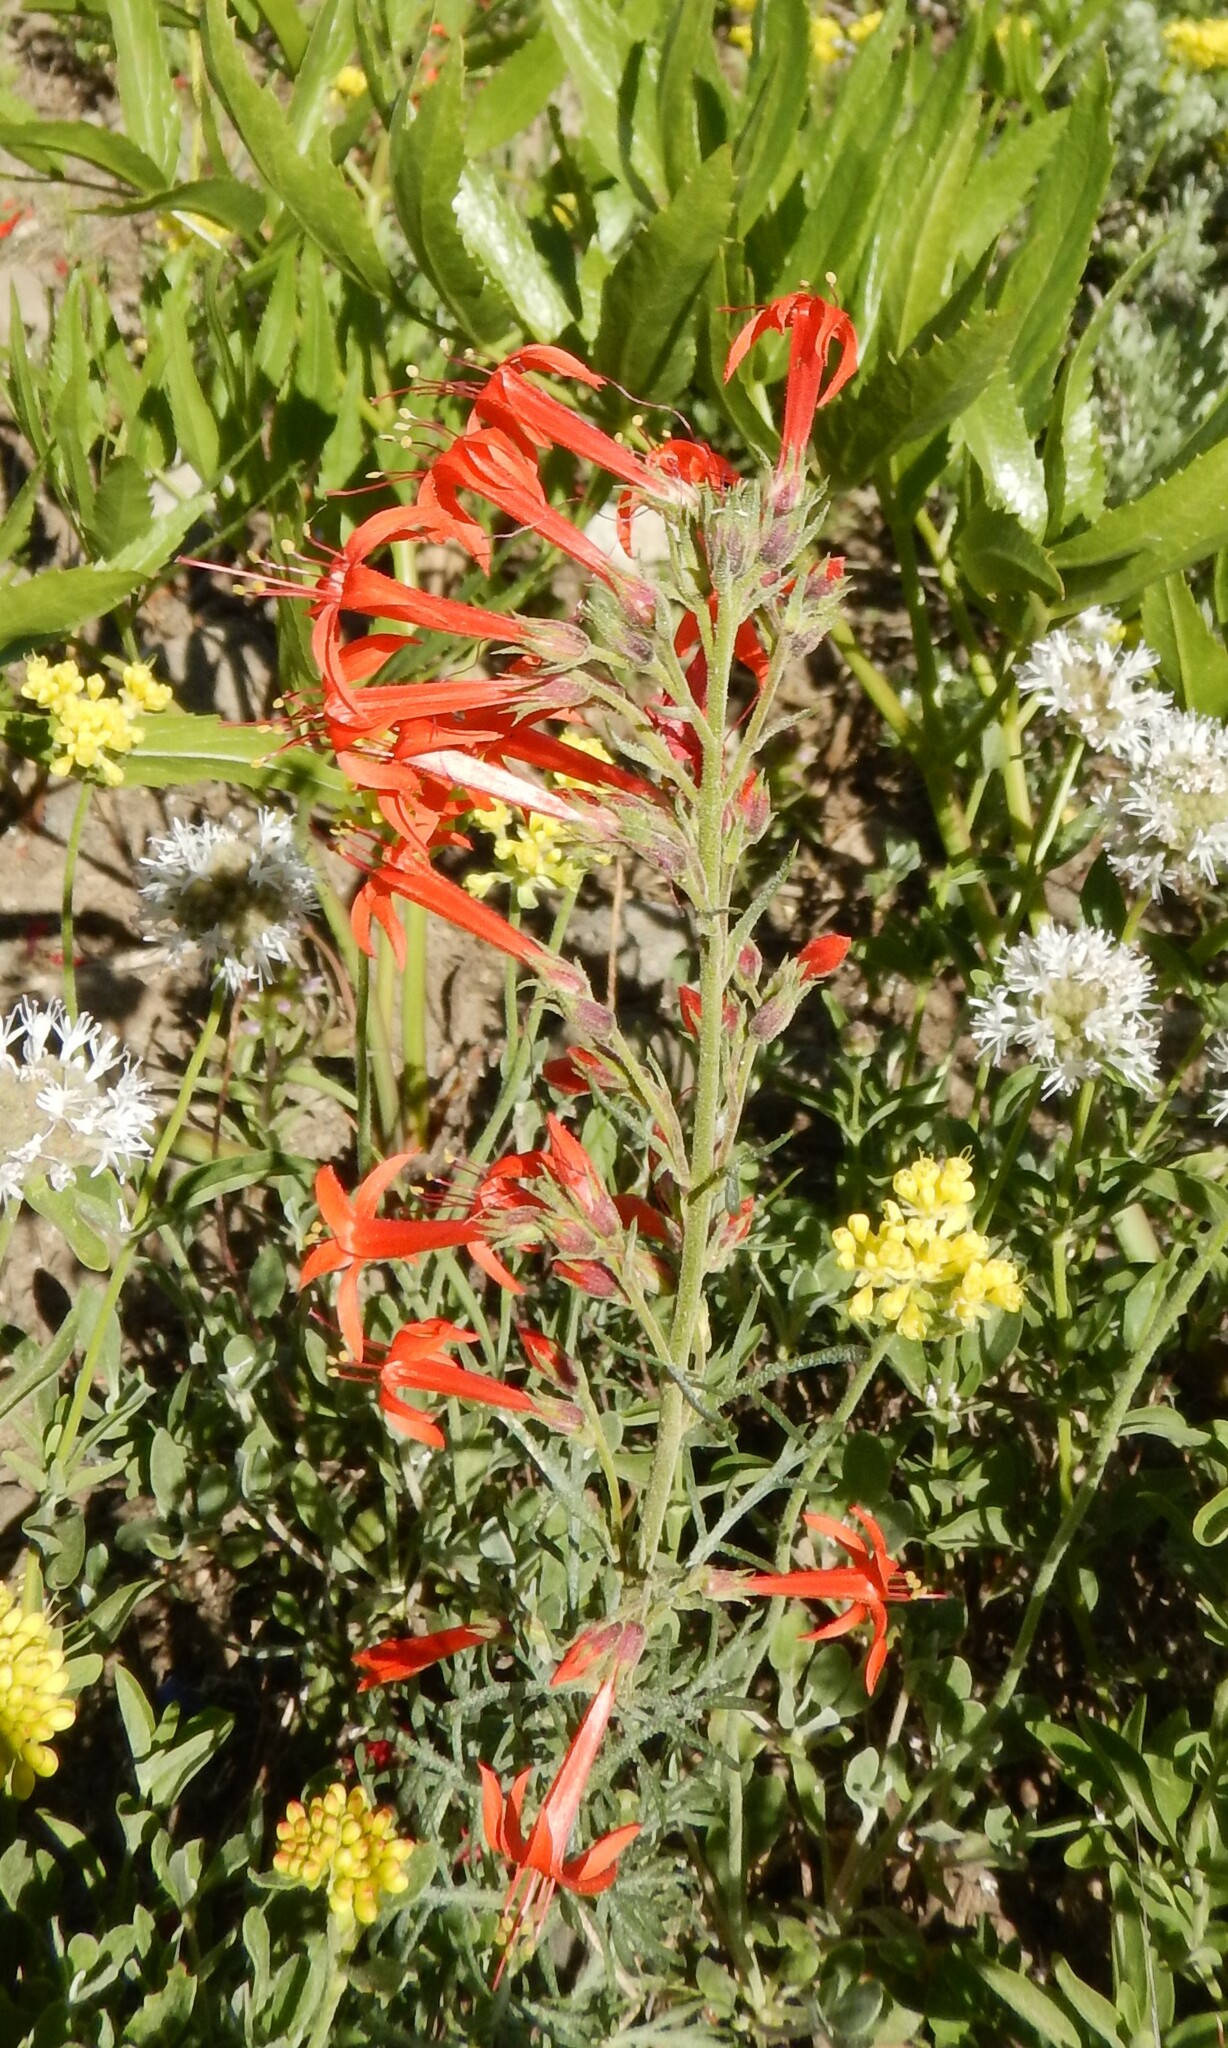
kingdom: Plantae
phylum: Tracheophyta
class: Magnoliopsida
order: Ericales
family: Polemoniaceae
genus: Ipomopsis
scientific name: Ipomopsis aggregata
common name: Scarlet gilia
